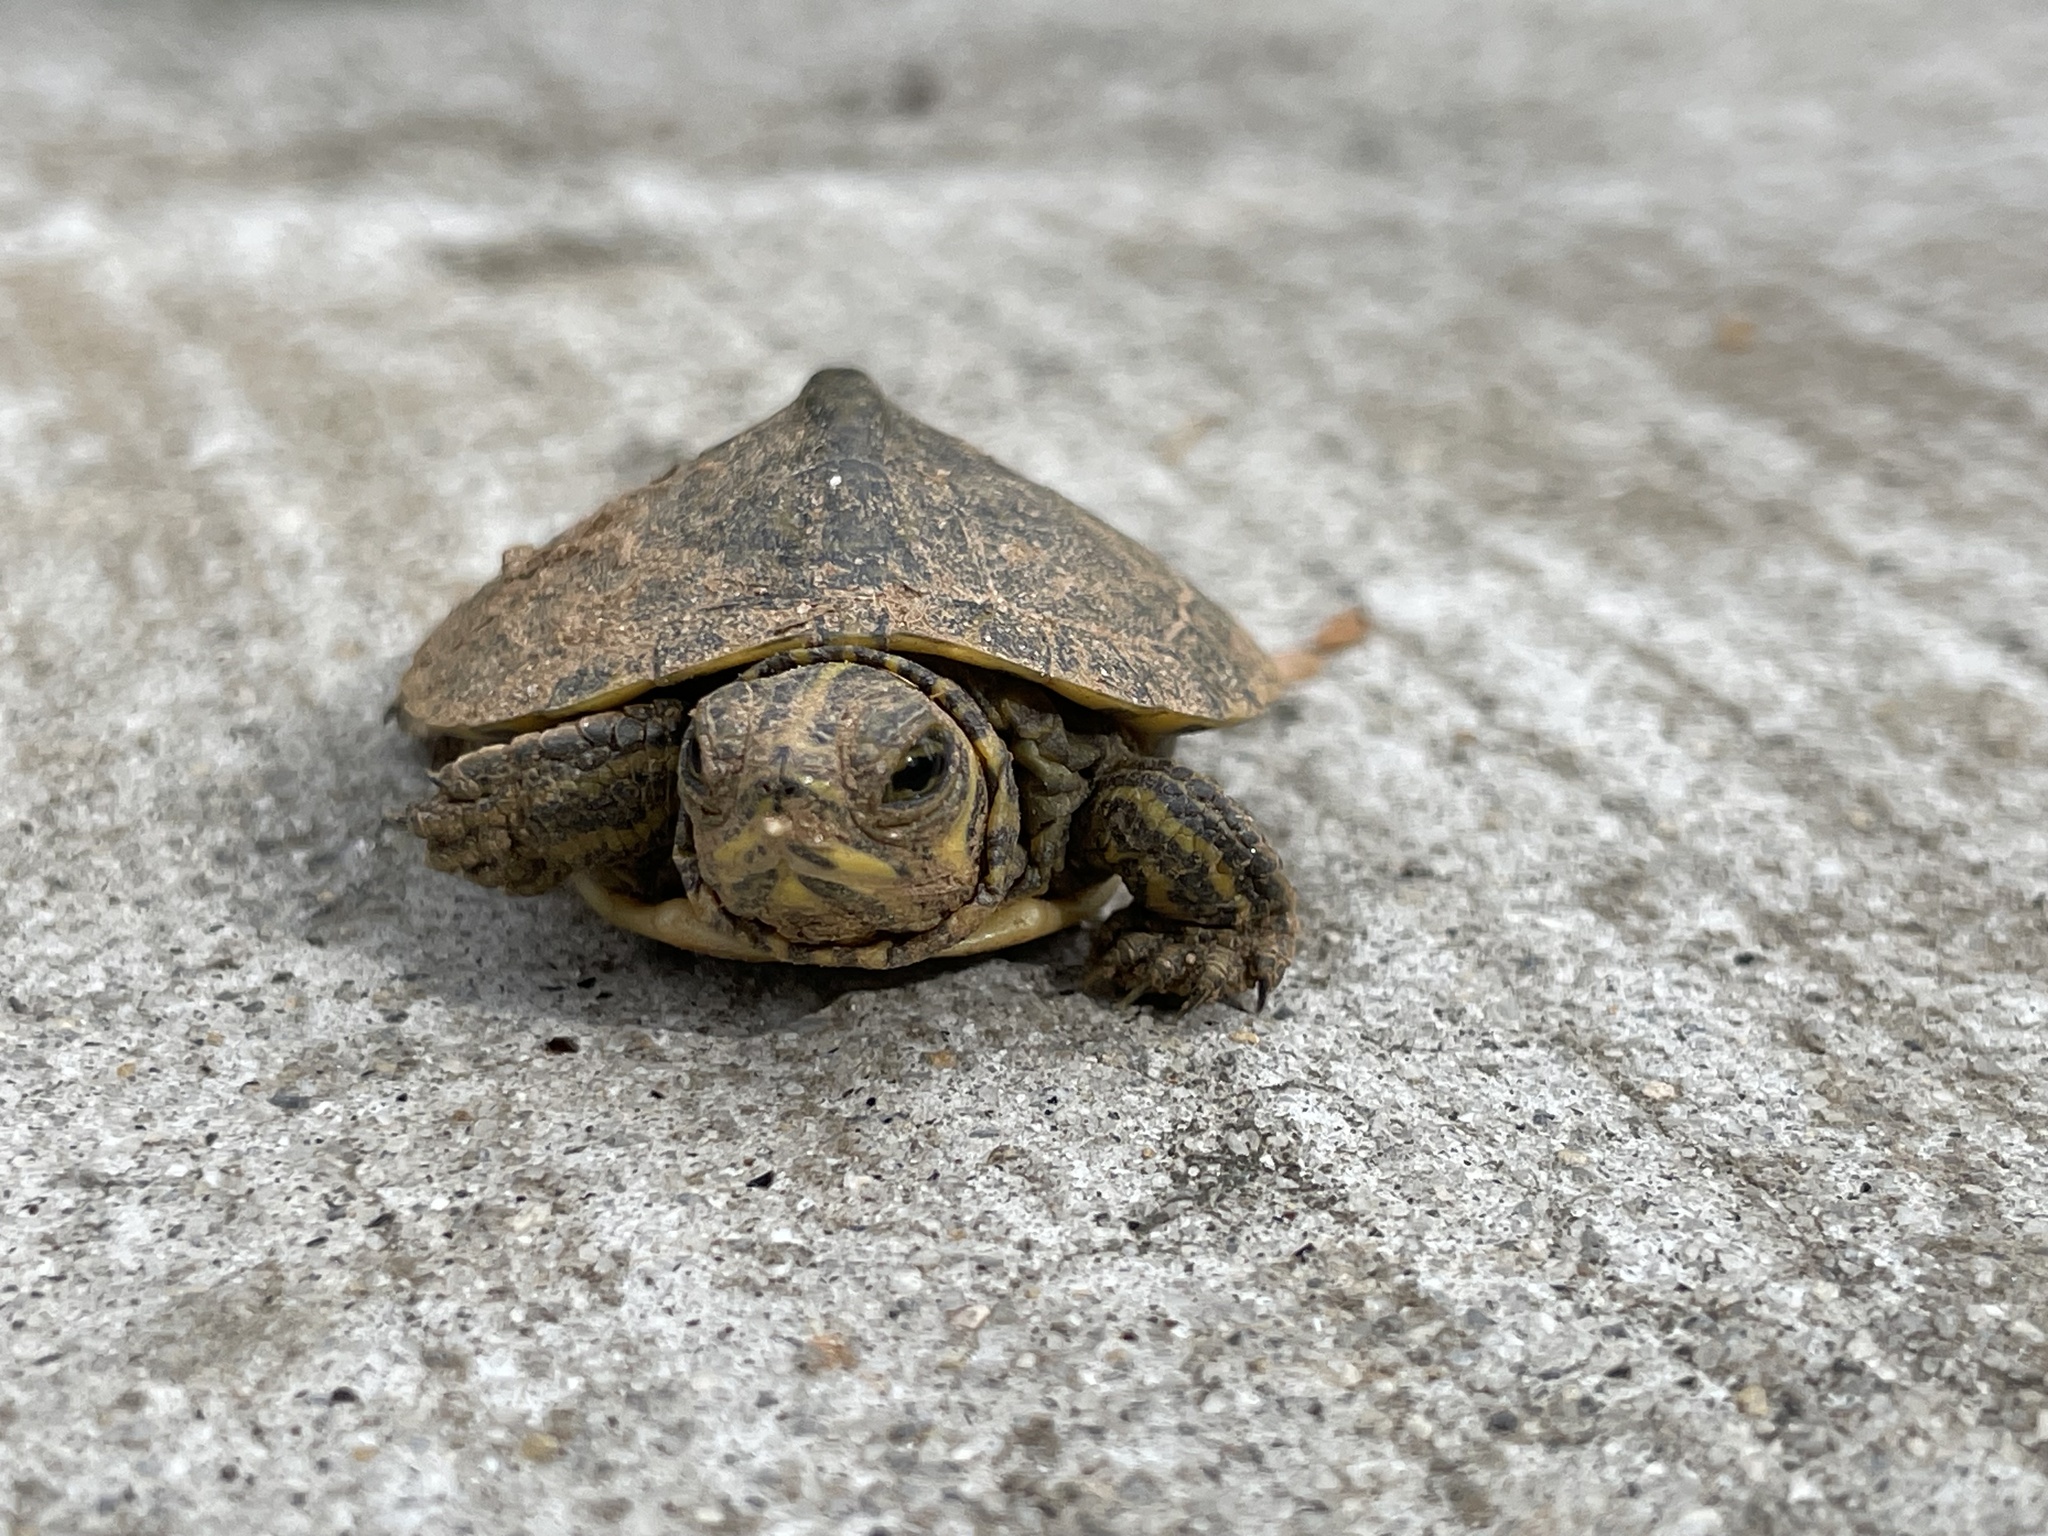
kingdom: Animalia
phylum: Chordata
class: Testudines
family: Emydidae
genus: Trachemys
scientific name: Trachemys scripta
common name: Slider
